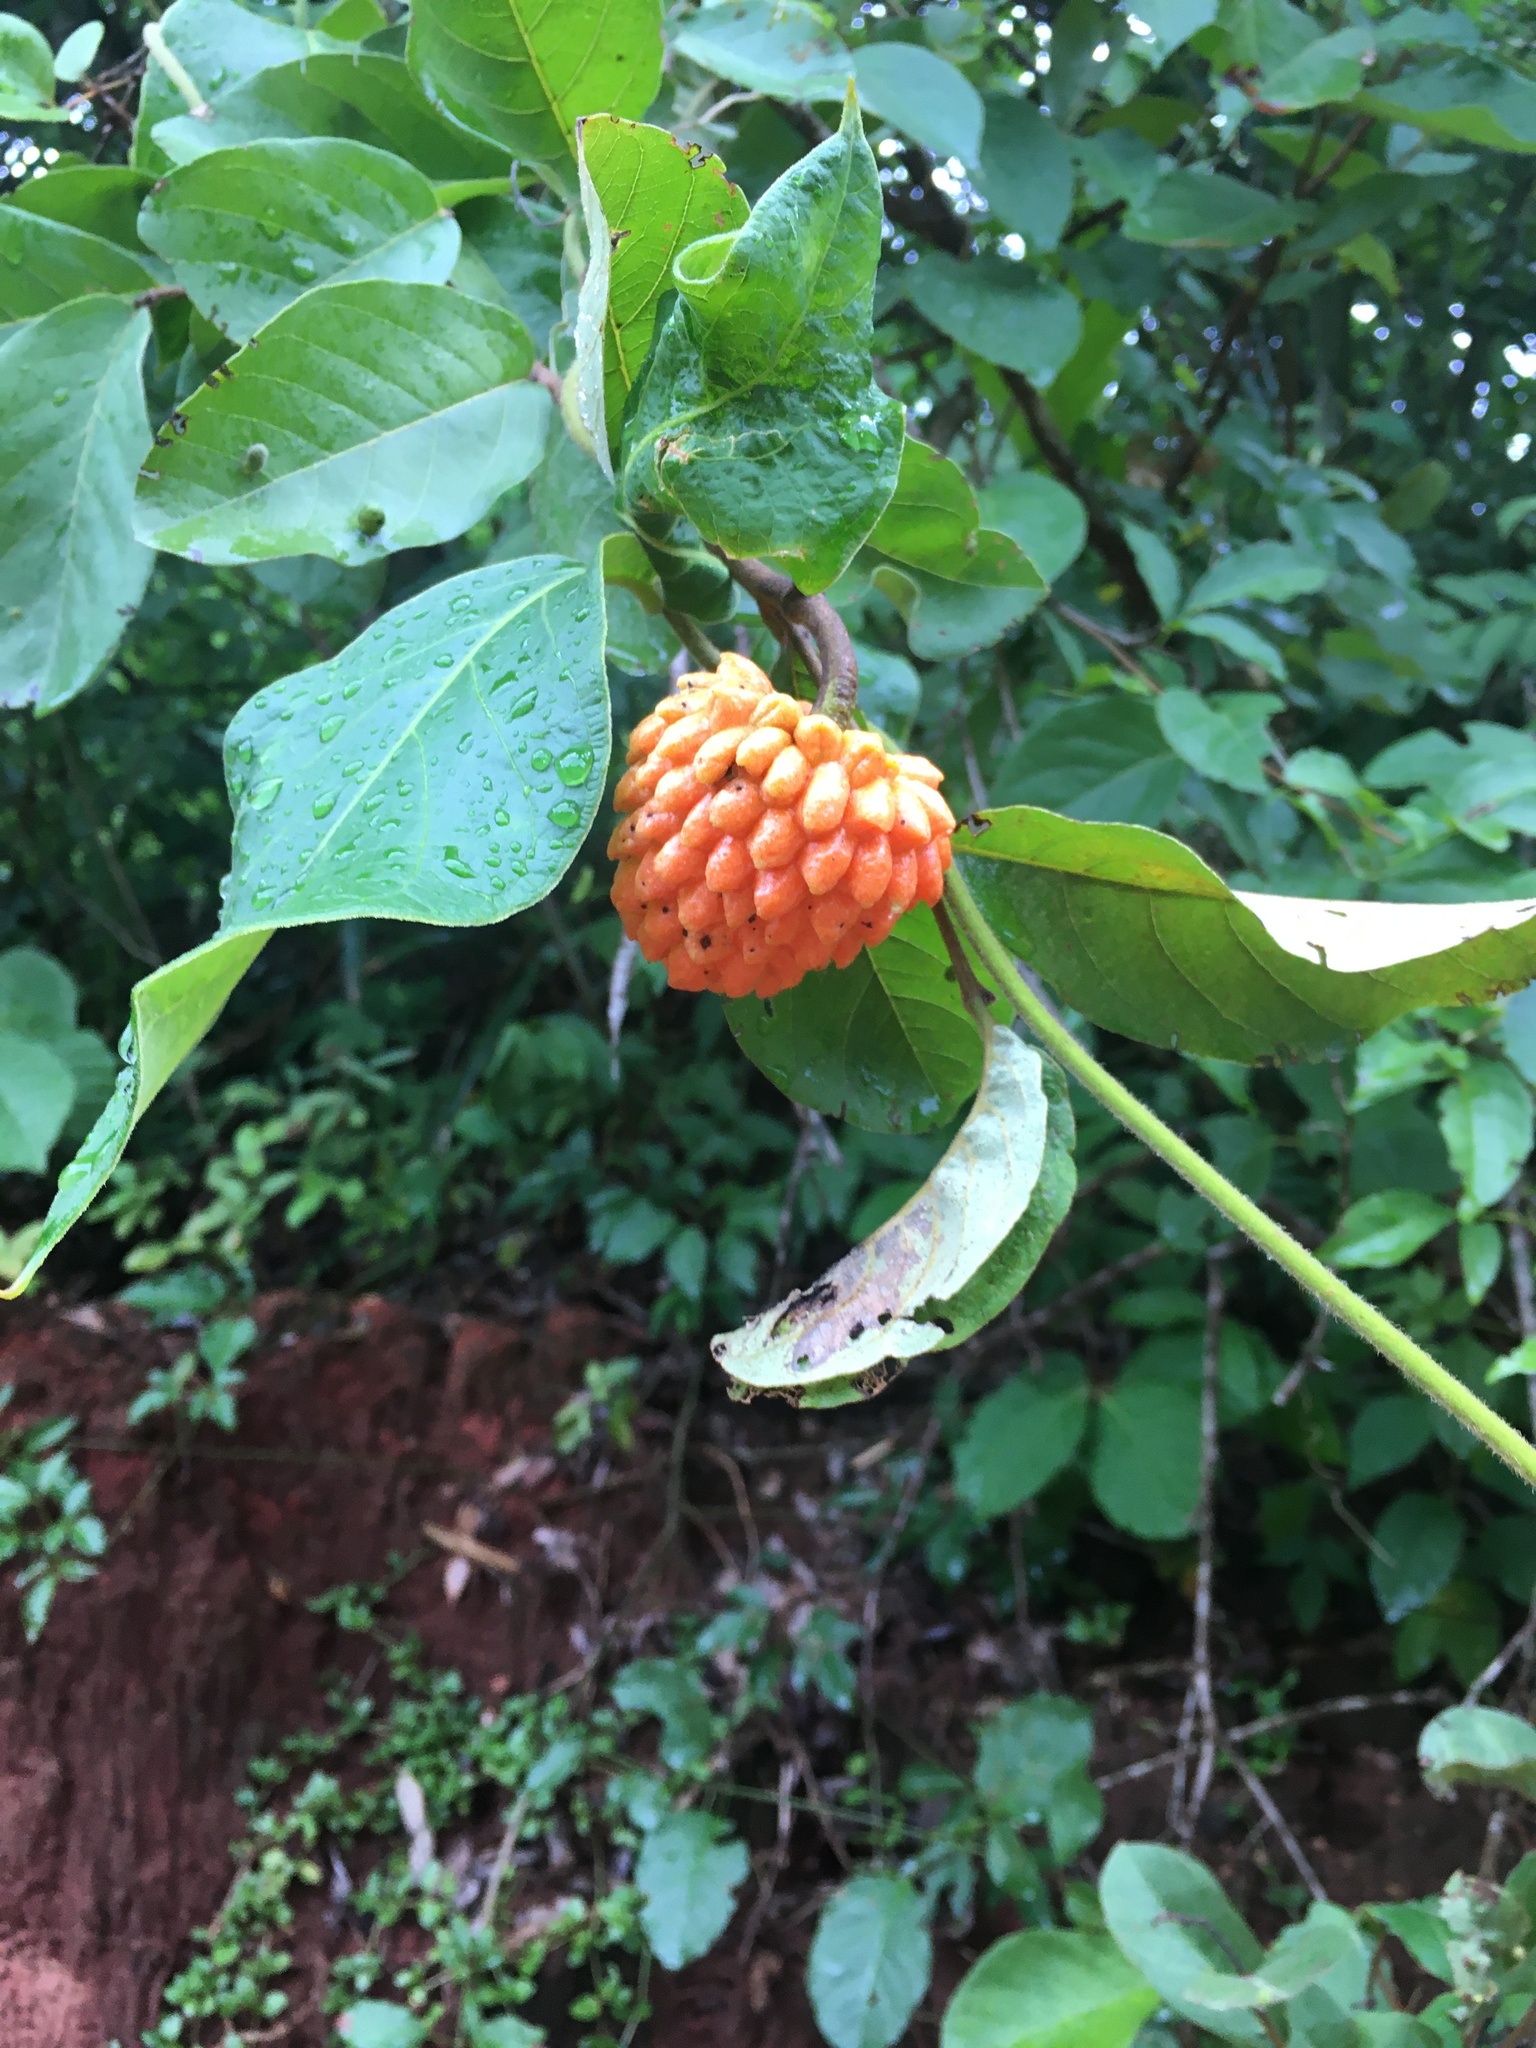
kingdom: Plantae
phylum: Tracheophyta
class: Magnoliopsida
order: Magnoliales
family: Annonaceae
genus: Annona
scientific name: Annona nutans
